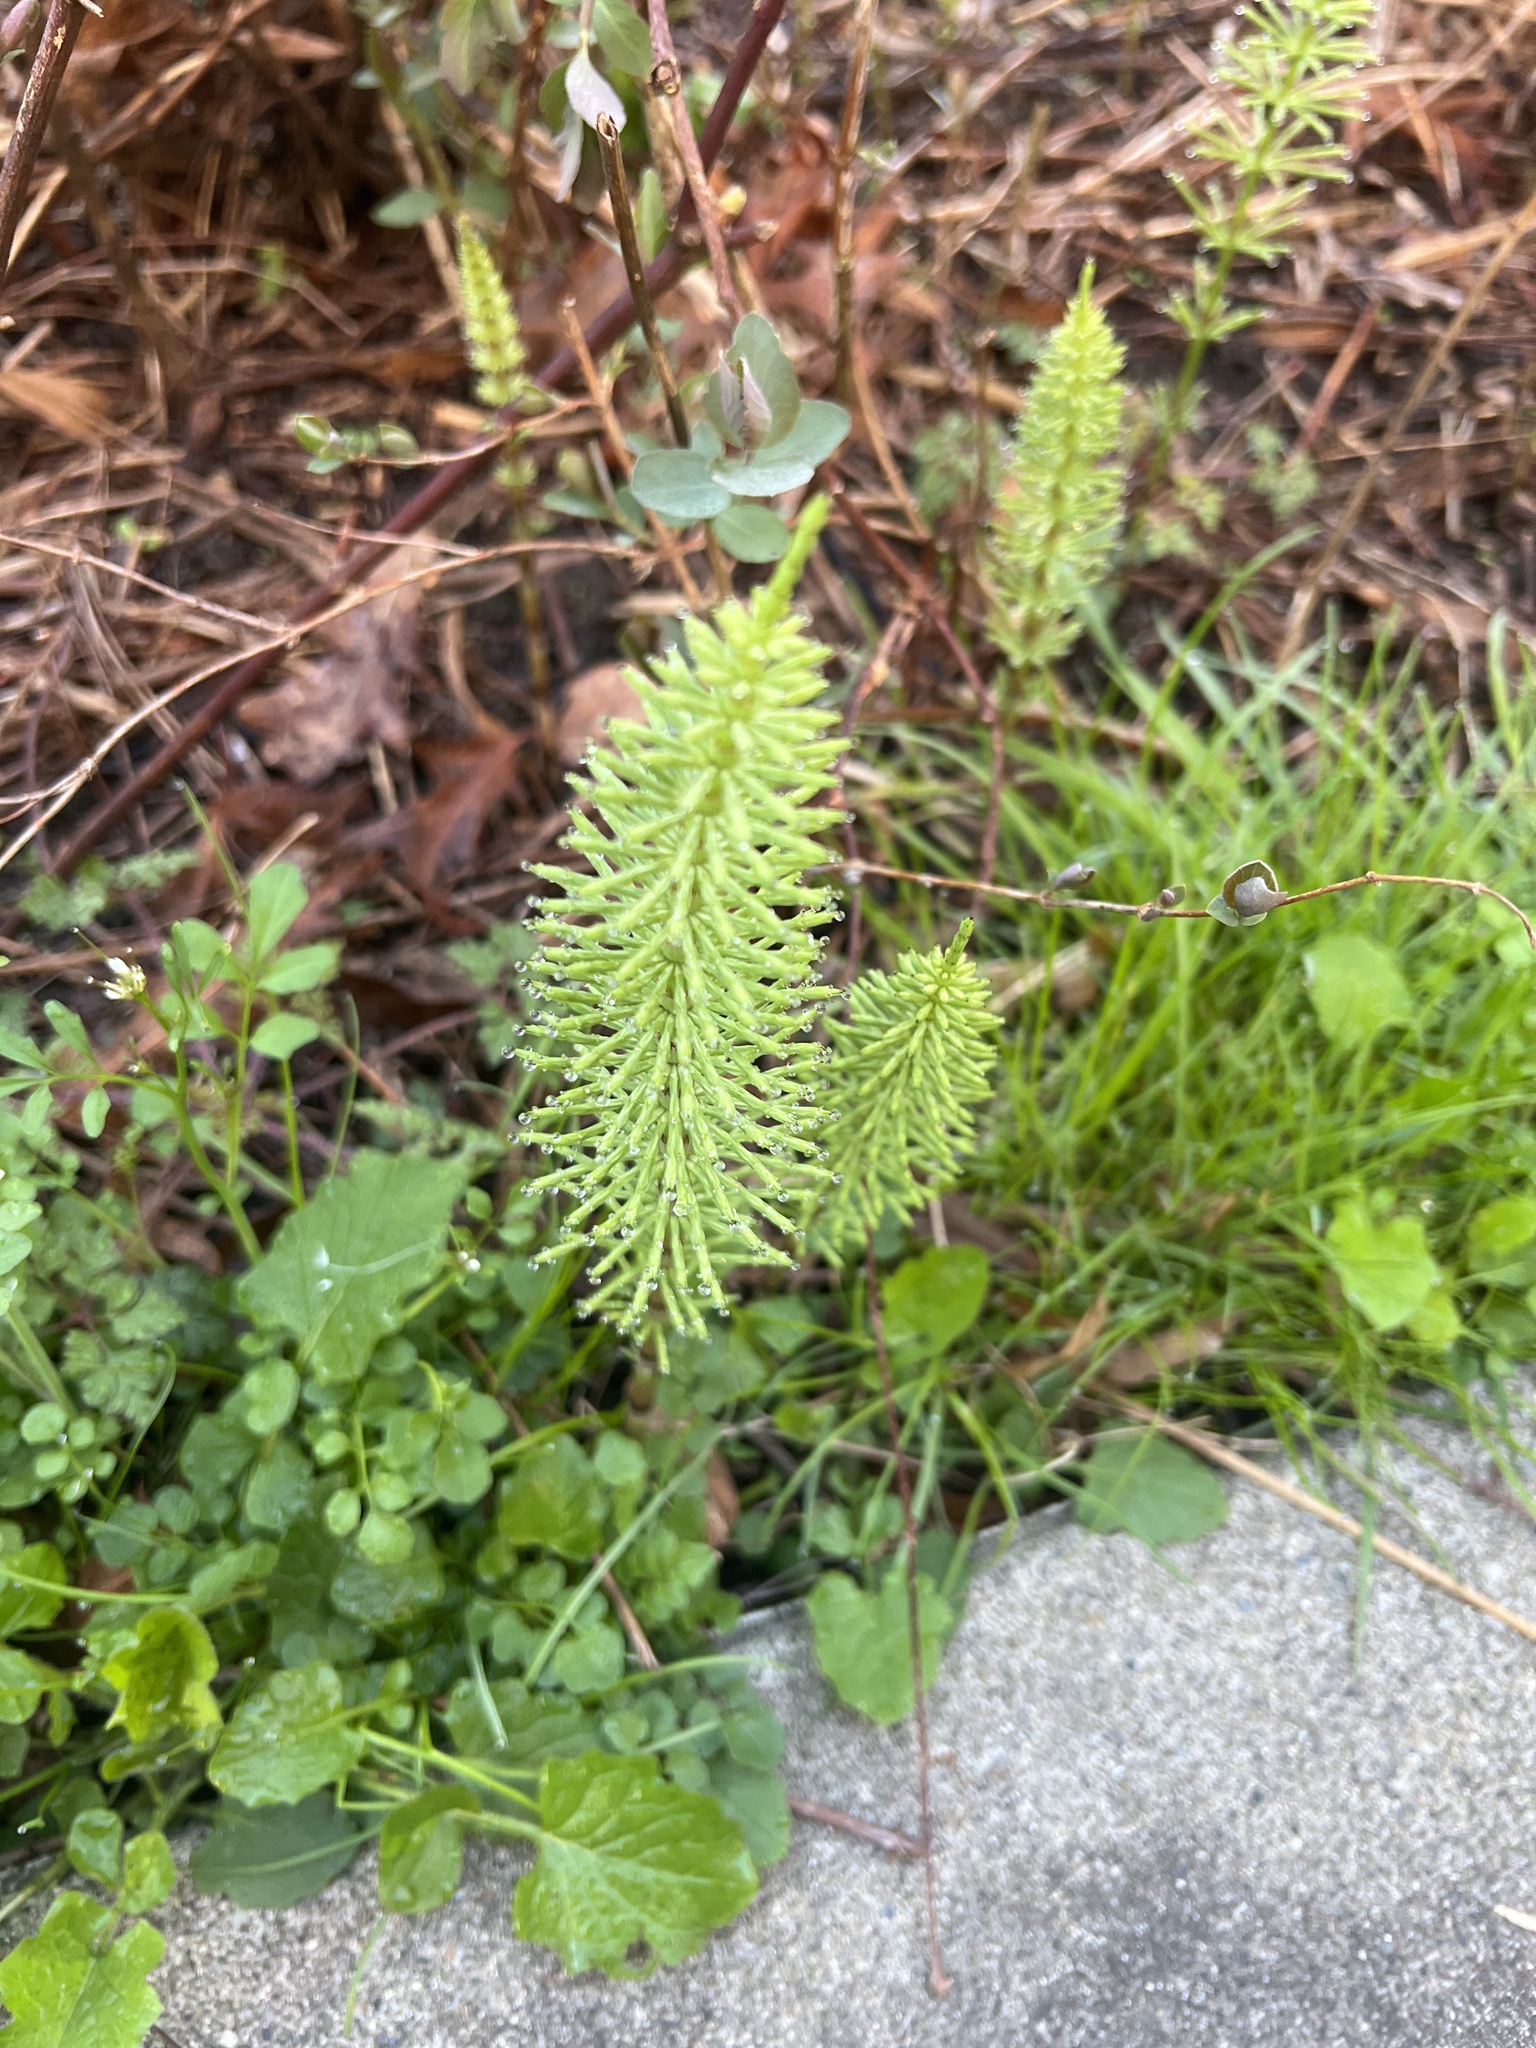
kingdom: Plantae
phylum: Tracheophyta
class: Polypodiopsida
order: Equisetales
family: Equisetaceae
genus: Equisetum
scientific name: Equisetum arvense
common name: Field horsetail
